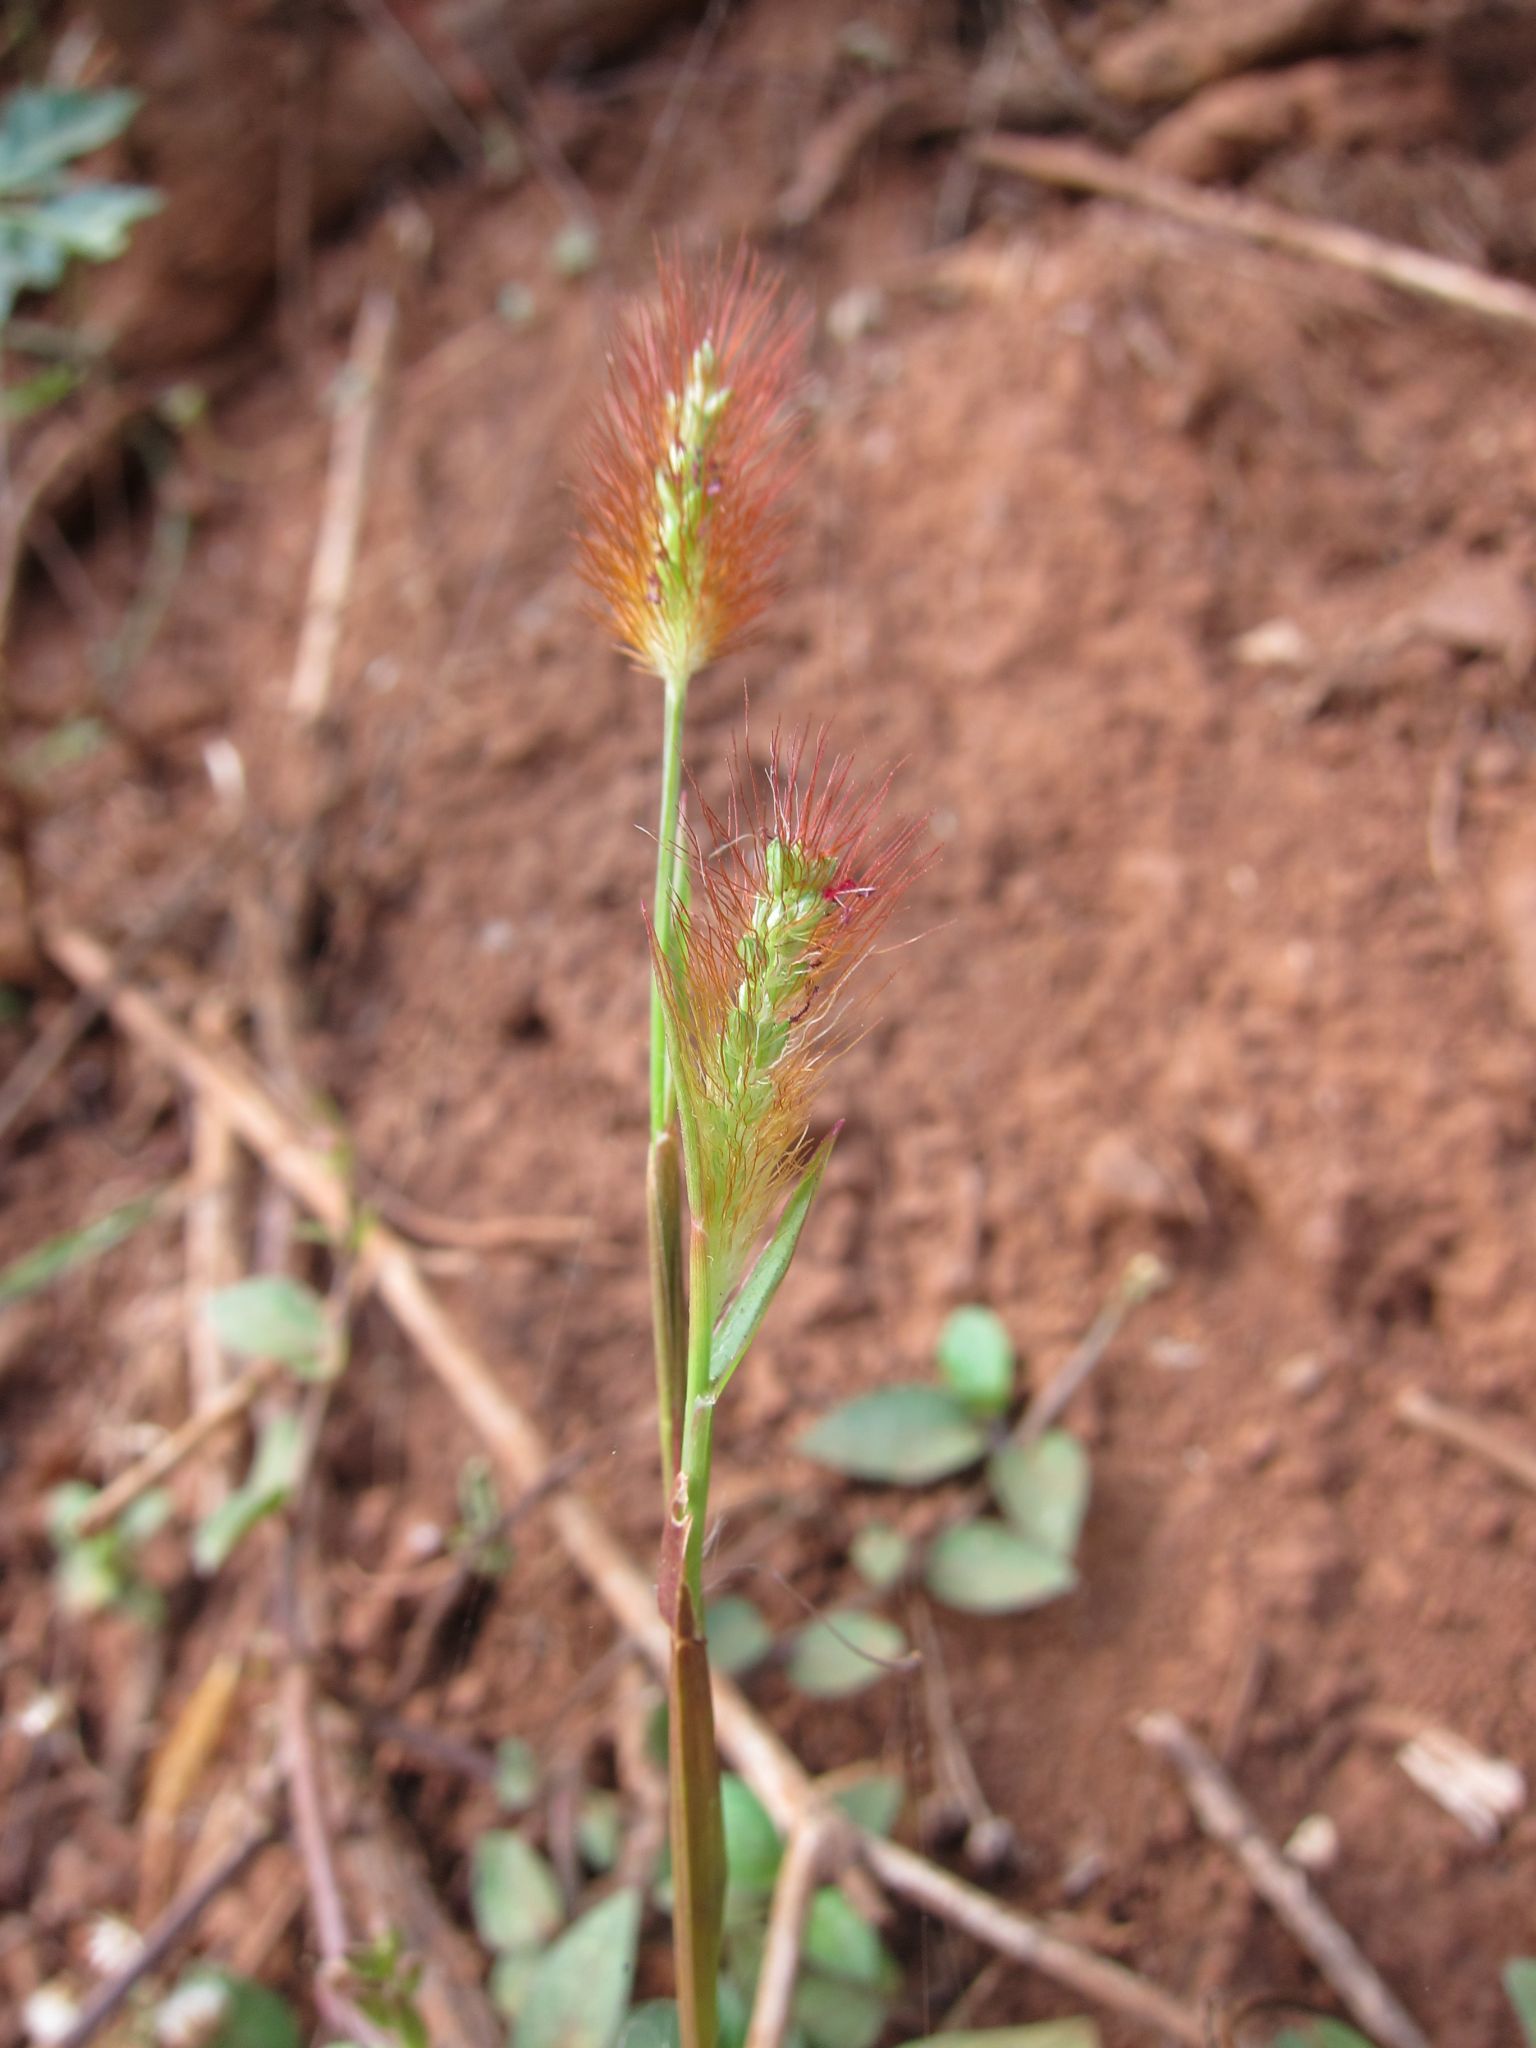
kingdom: Plantae
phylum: Tracheophyta
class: Liliopsida
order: Poales
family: Poaceae
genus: Setaria
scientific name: Setaria pumila
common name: Yellow bristle-grass
